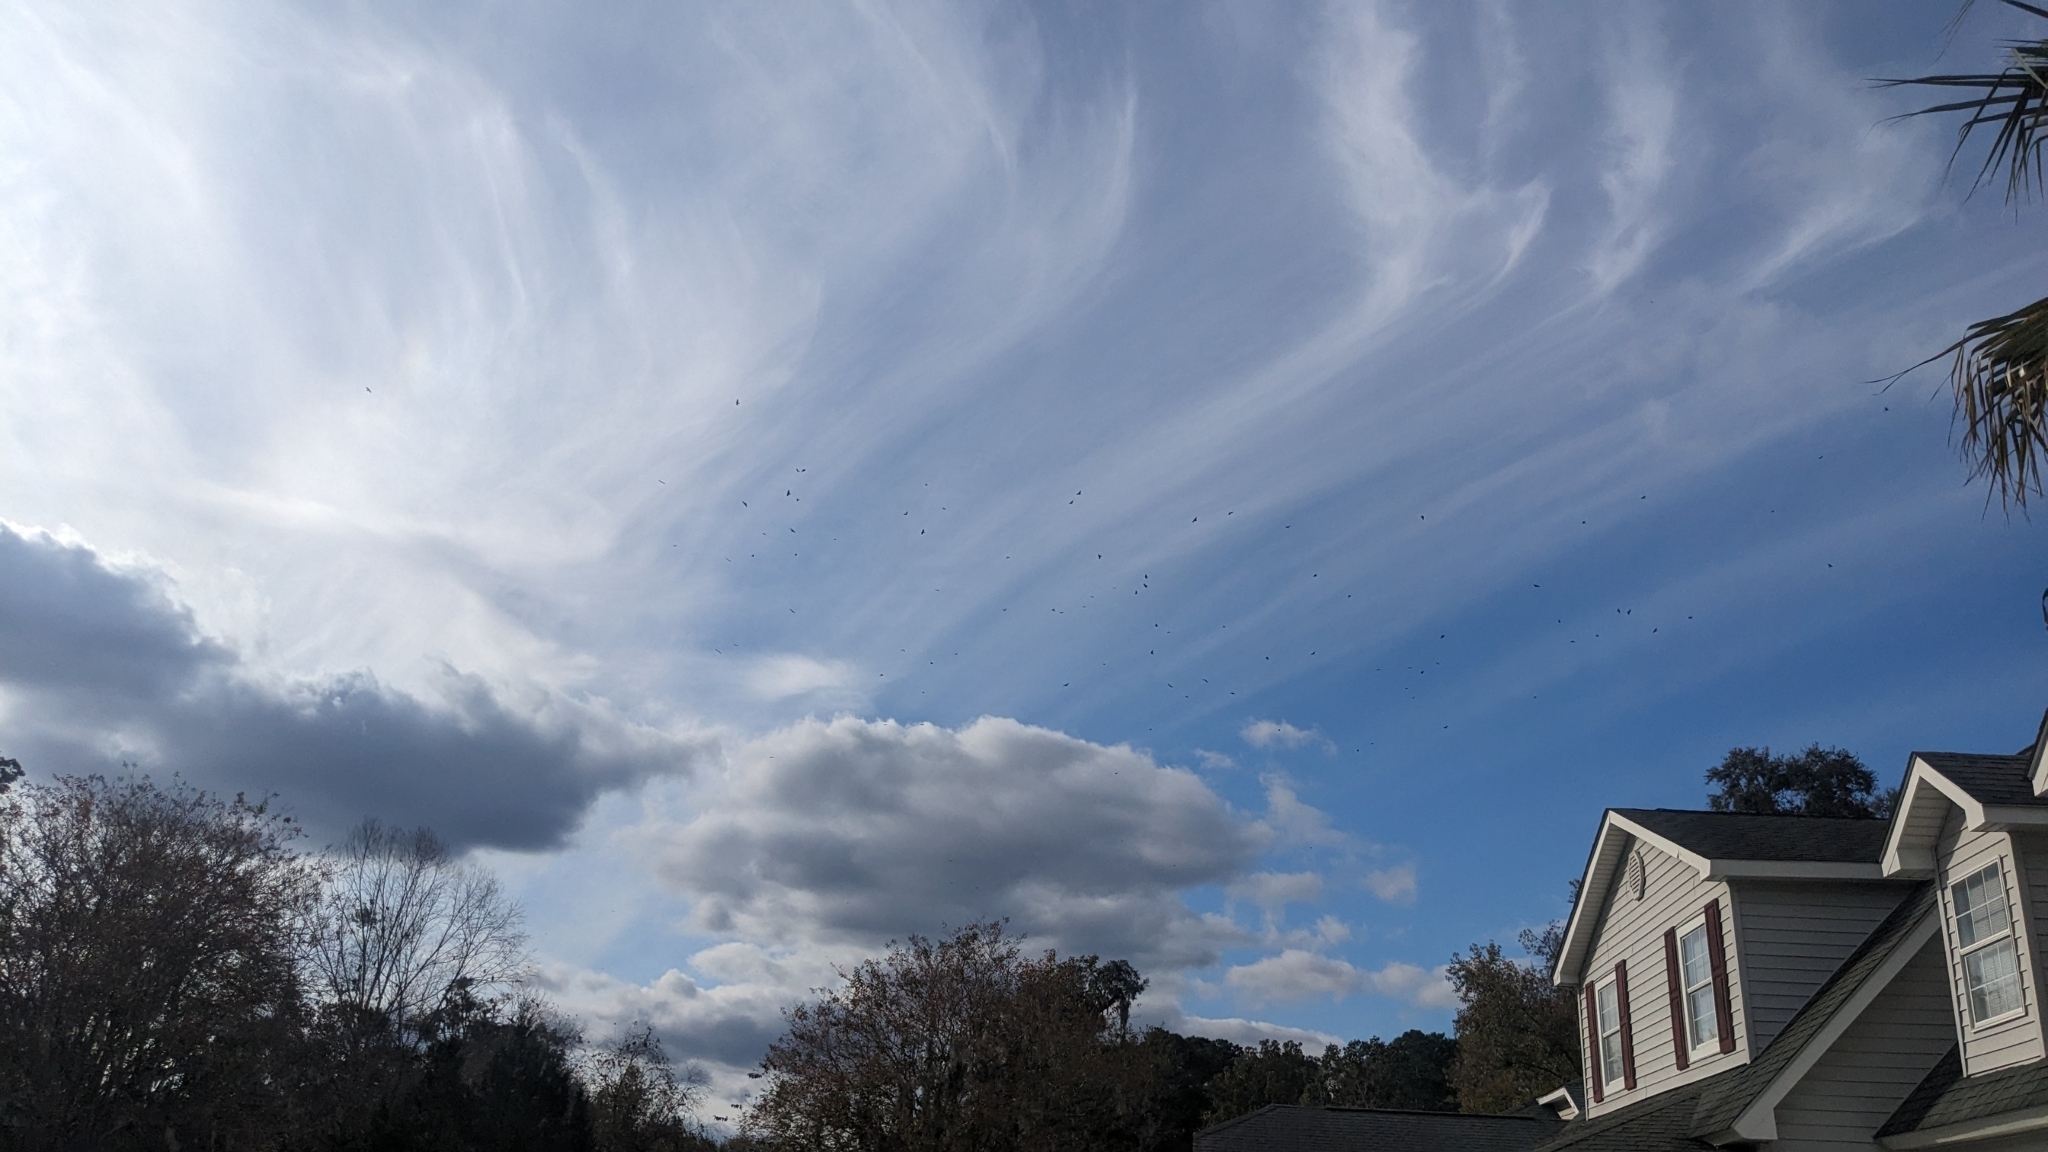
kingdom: Animalia
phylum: Chordata
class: Aves
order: Passeriformes
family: Corvidae
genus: Corvus
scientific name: Corvus ossifragus
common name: Fish crow
